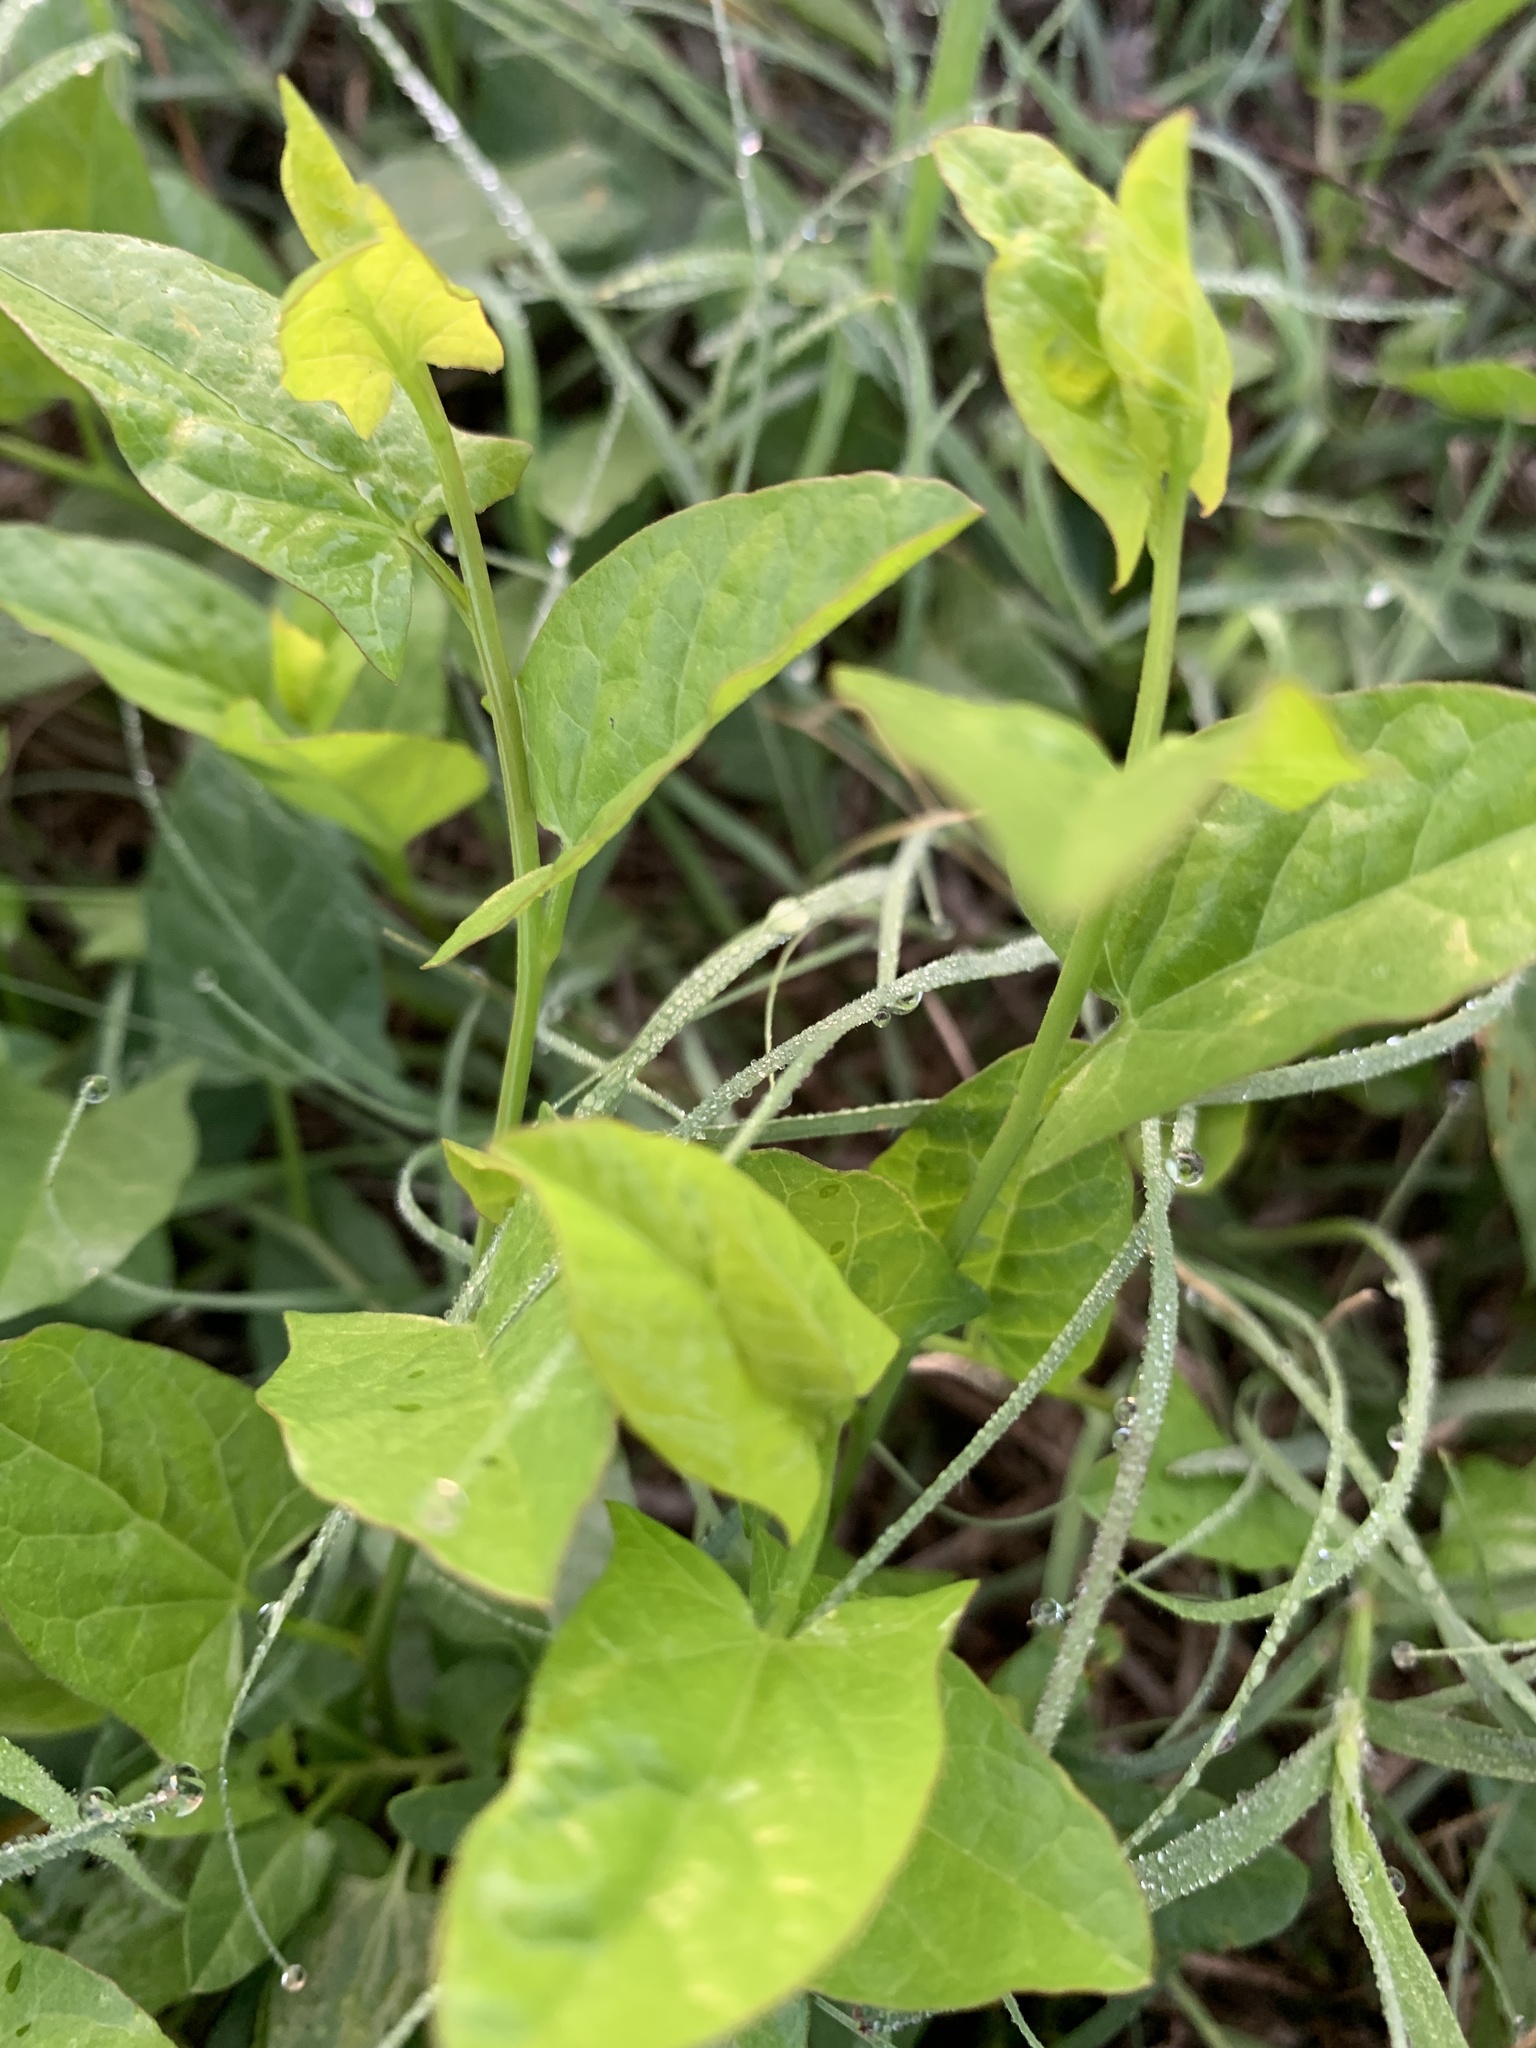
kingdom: Plantae
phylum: Tracheophyta
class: Magnoliopsida
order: Solanales
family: Convolvulaceae
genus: Convolvulus
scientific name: Convolvulus arvensis
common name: Field bindweed
